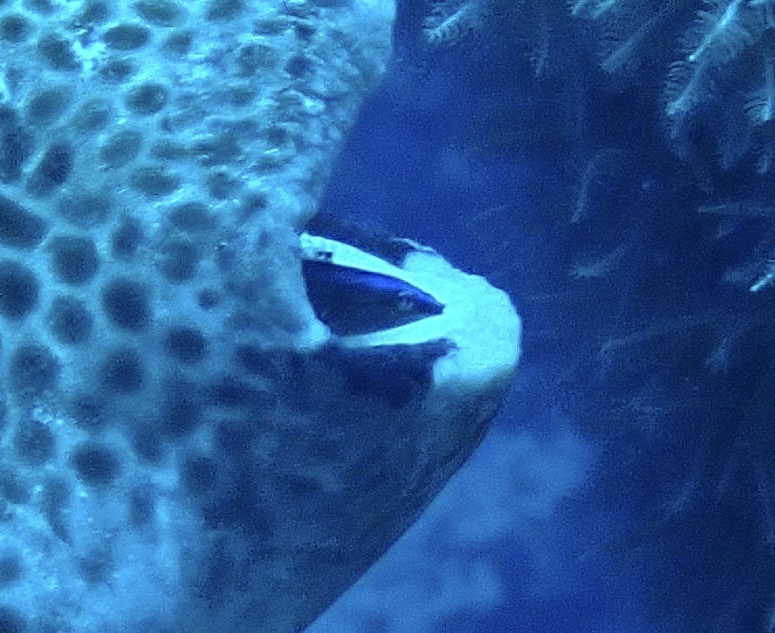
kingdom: Animalia
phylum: Chordata
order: Perciformes
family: Labridae
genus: Labroides
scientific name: Labroides dimidiatus
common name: Blue diesel wrasse
